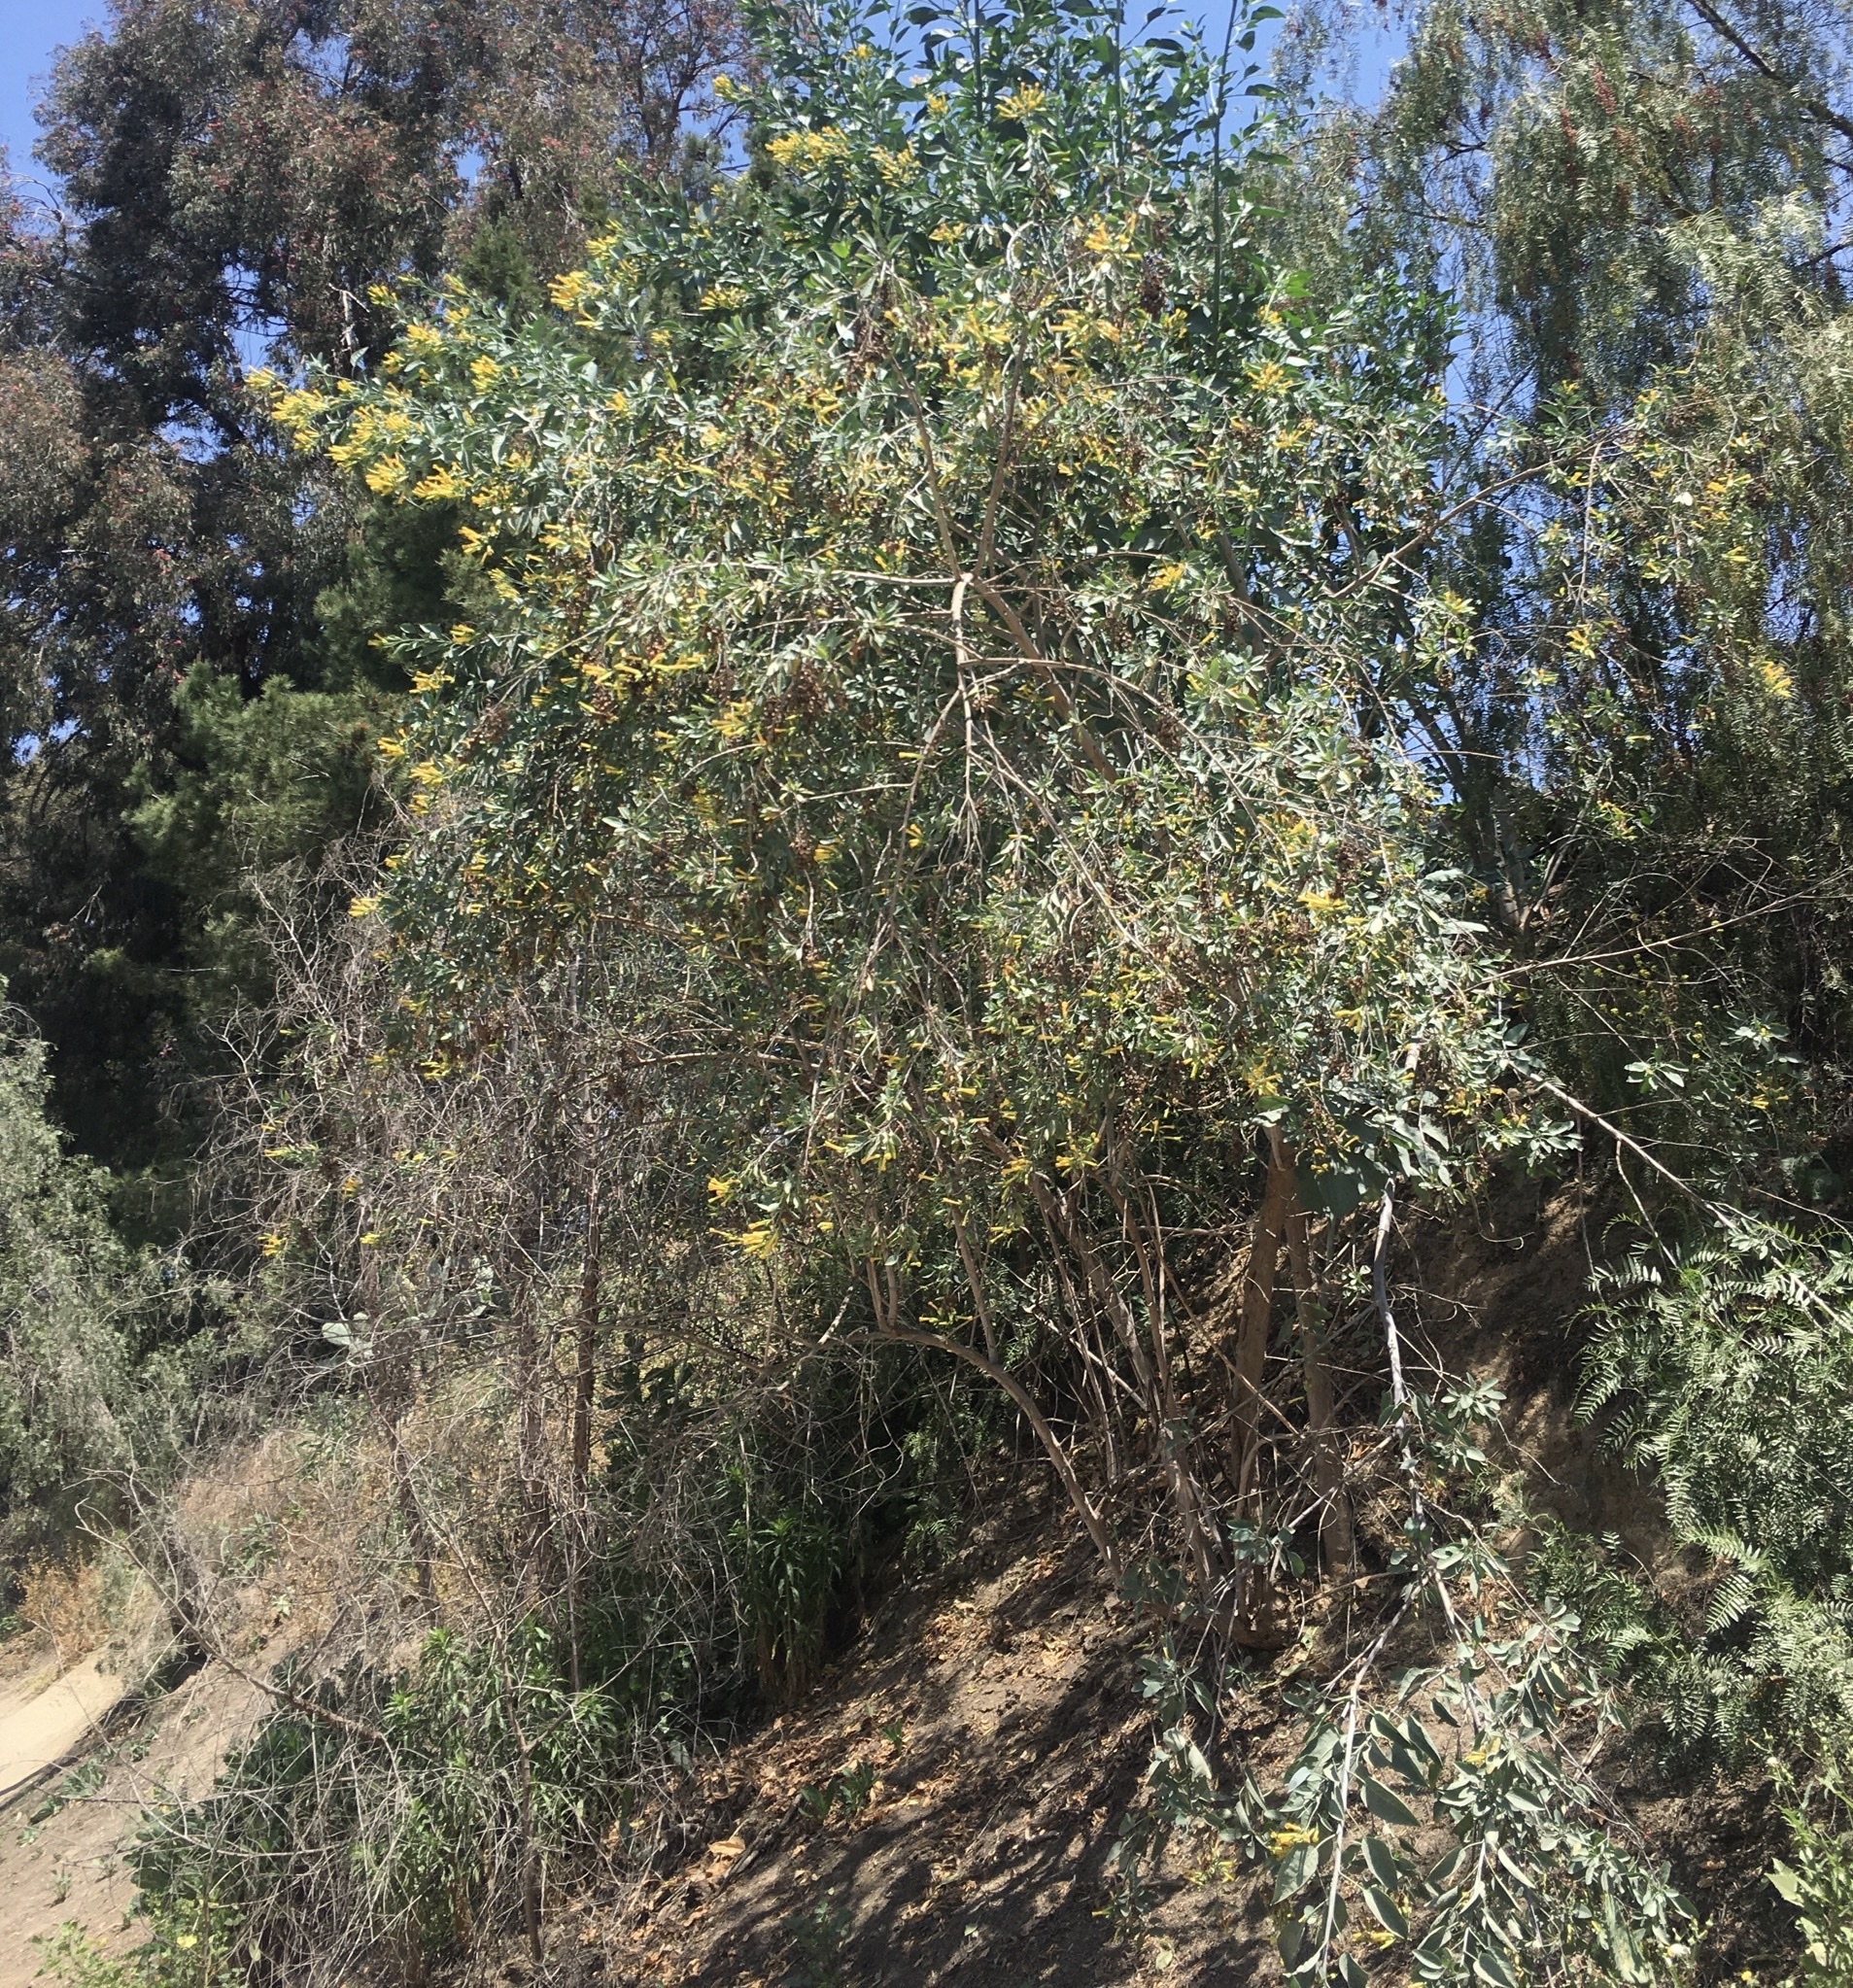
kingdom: Plantae
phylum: Tracheophyta
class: Magnoliopsida
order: Solanales
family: Solanaceae
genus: Nicotiana
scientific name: Nicotiana glauca
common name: Tree tobacco
